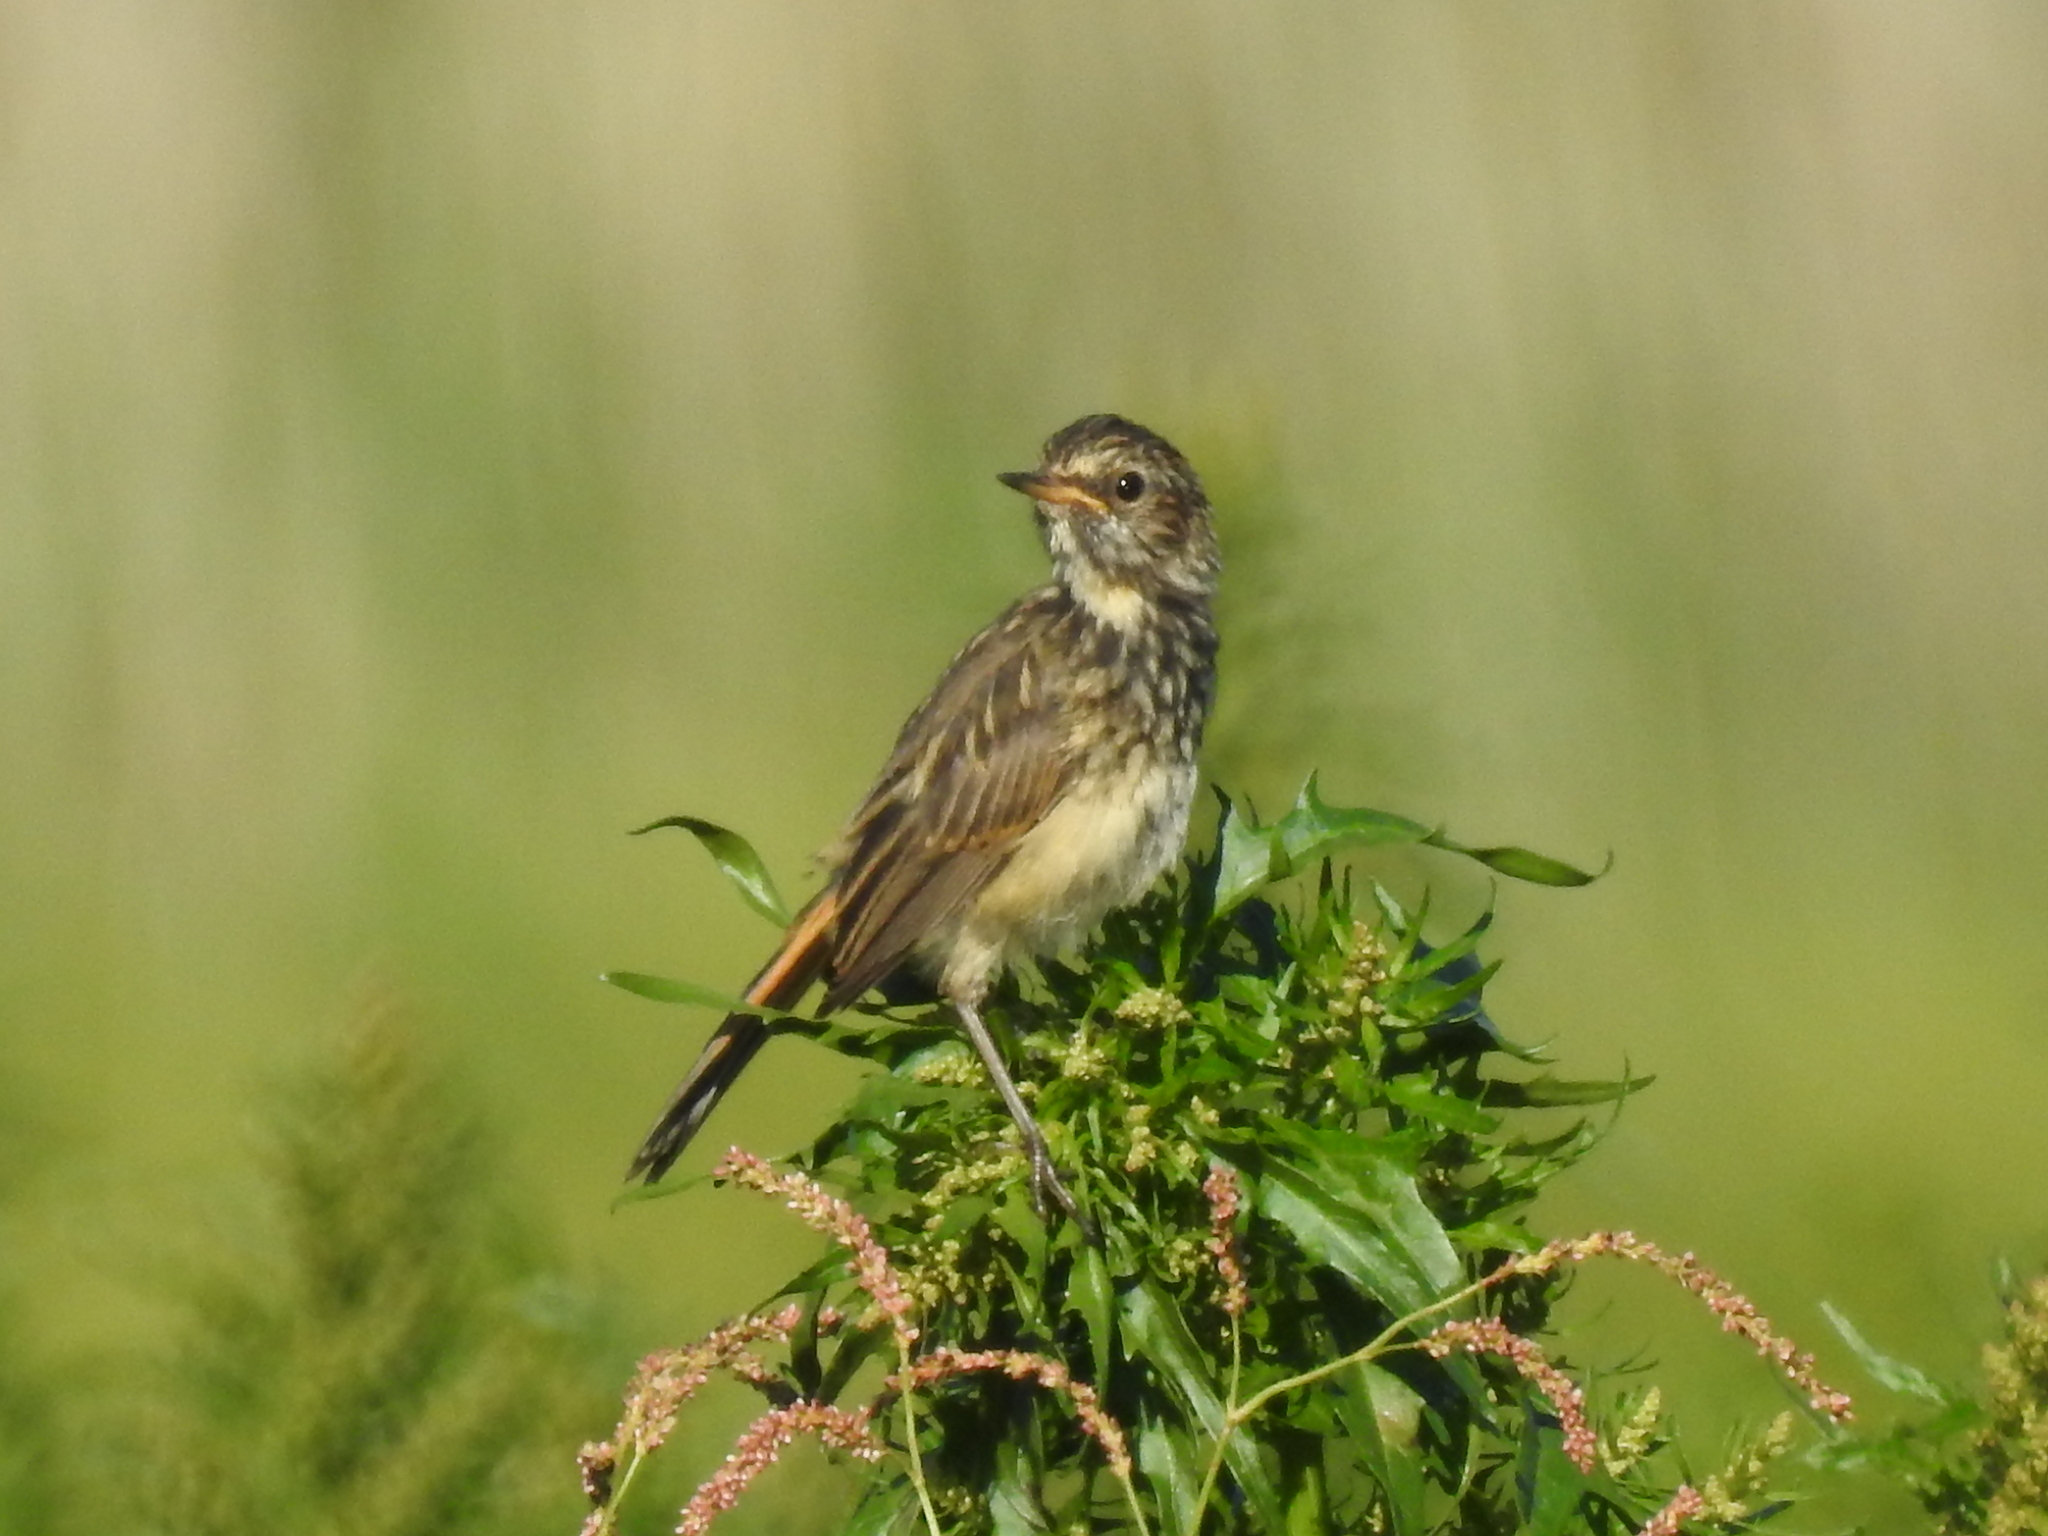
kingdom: Animalia
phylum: Chordata
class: Aves
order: Passeriformes
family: Muscicapidae
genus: Luscinia
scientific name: Luscinia svecica
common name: Bluethroat
